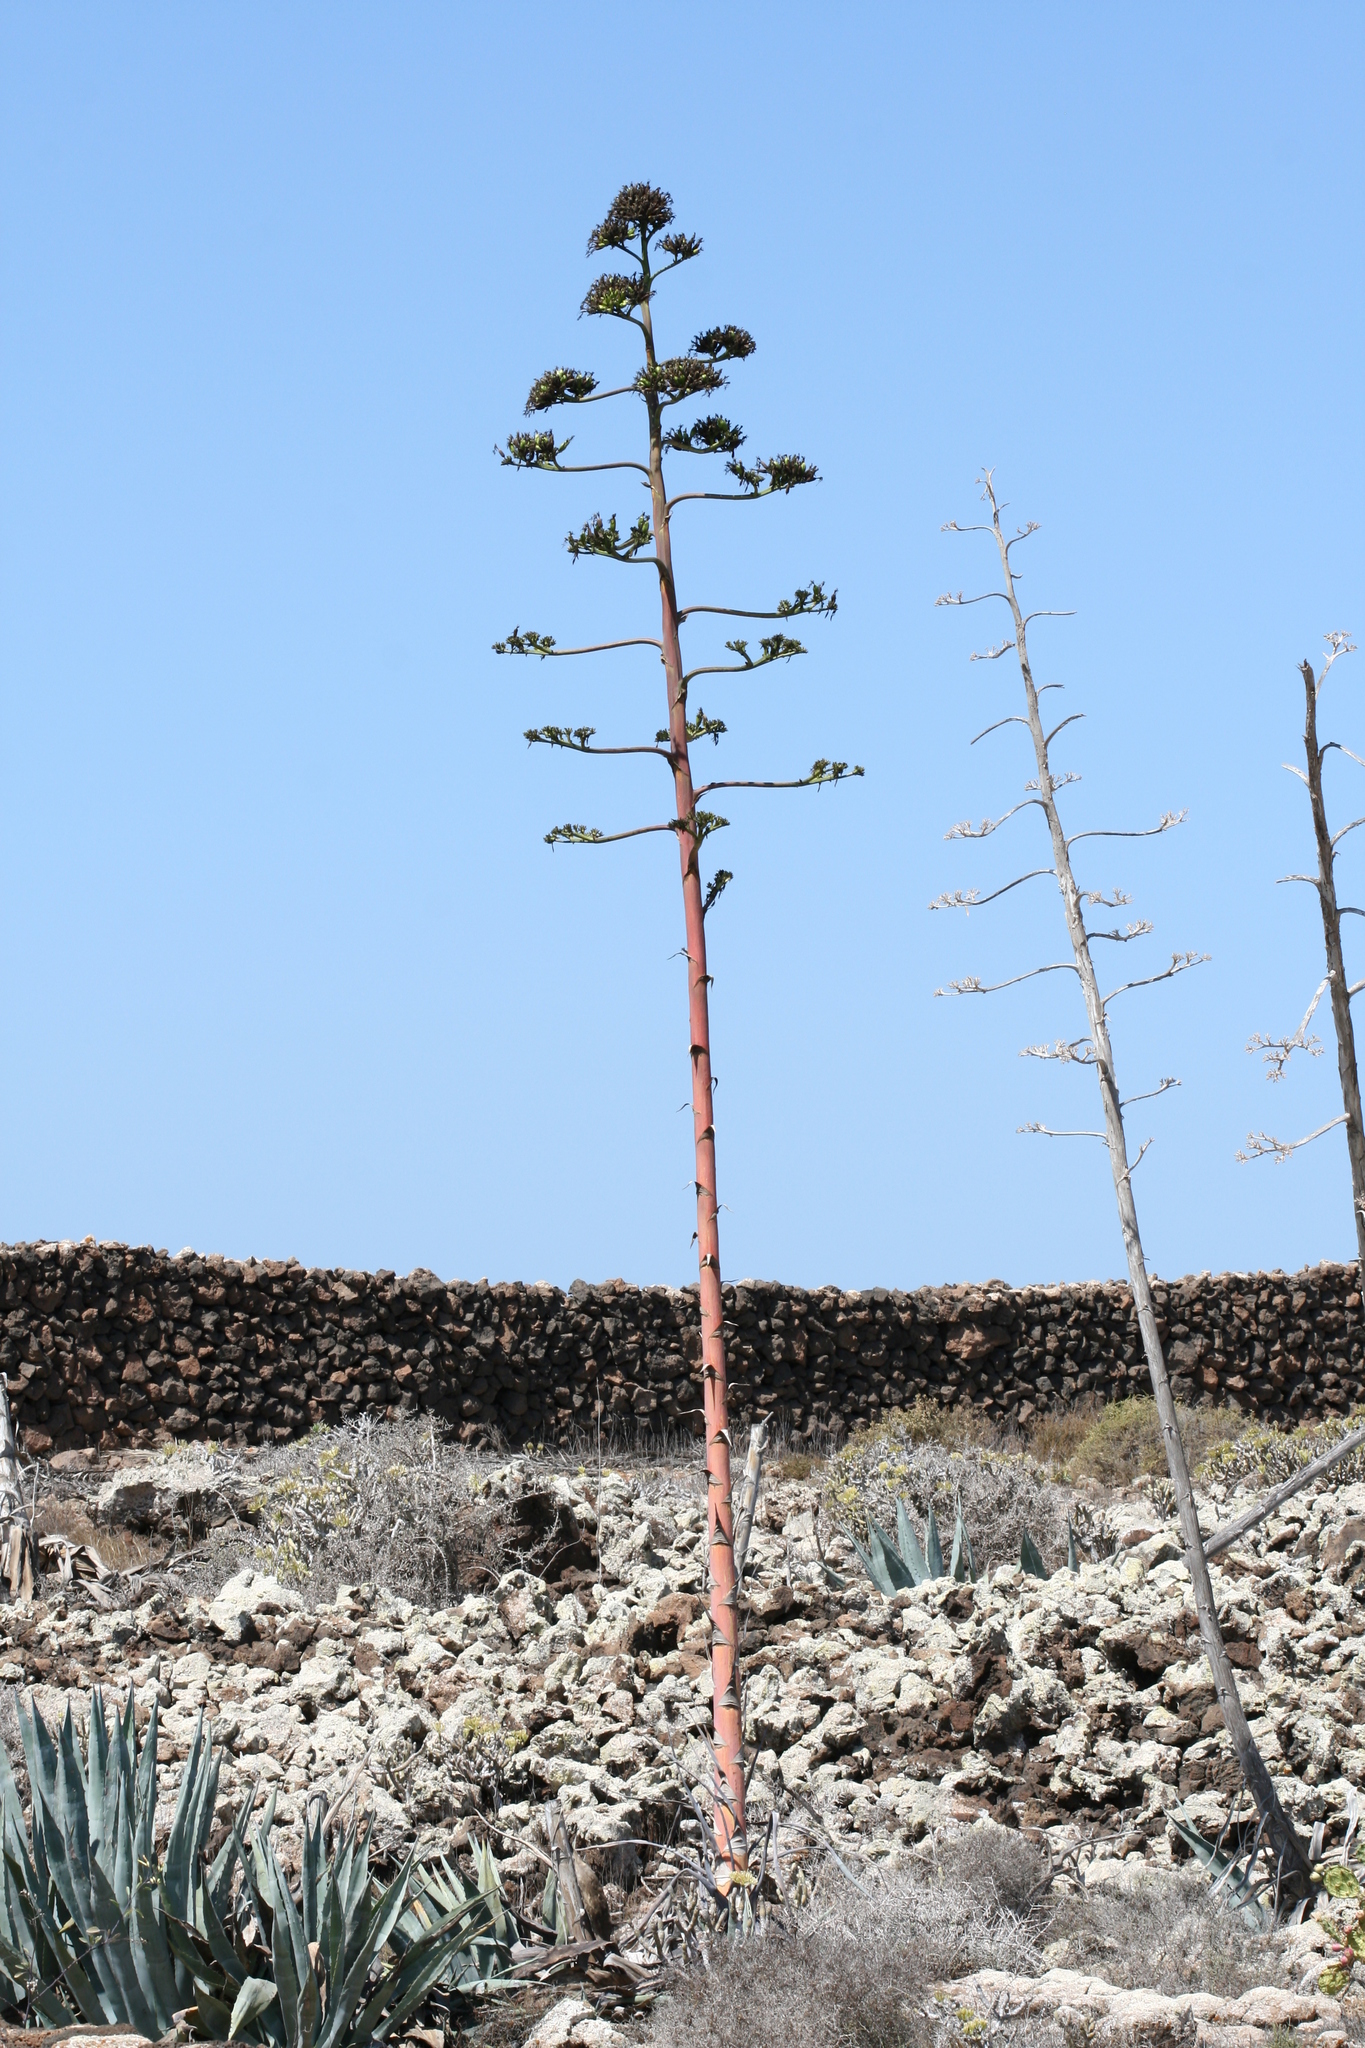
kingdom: Plantae
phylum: Tracheophyta
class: Liliopsida
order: Asparagales
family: Asparagaceae
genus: Agave
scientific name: Agave americana
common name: Centuryplant
